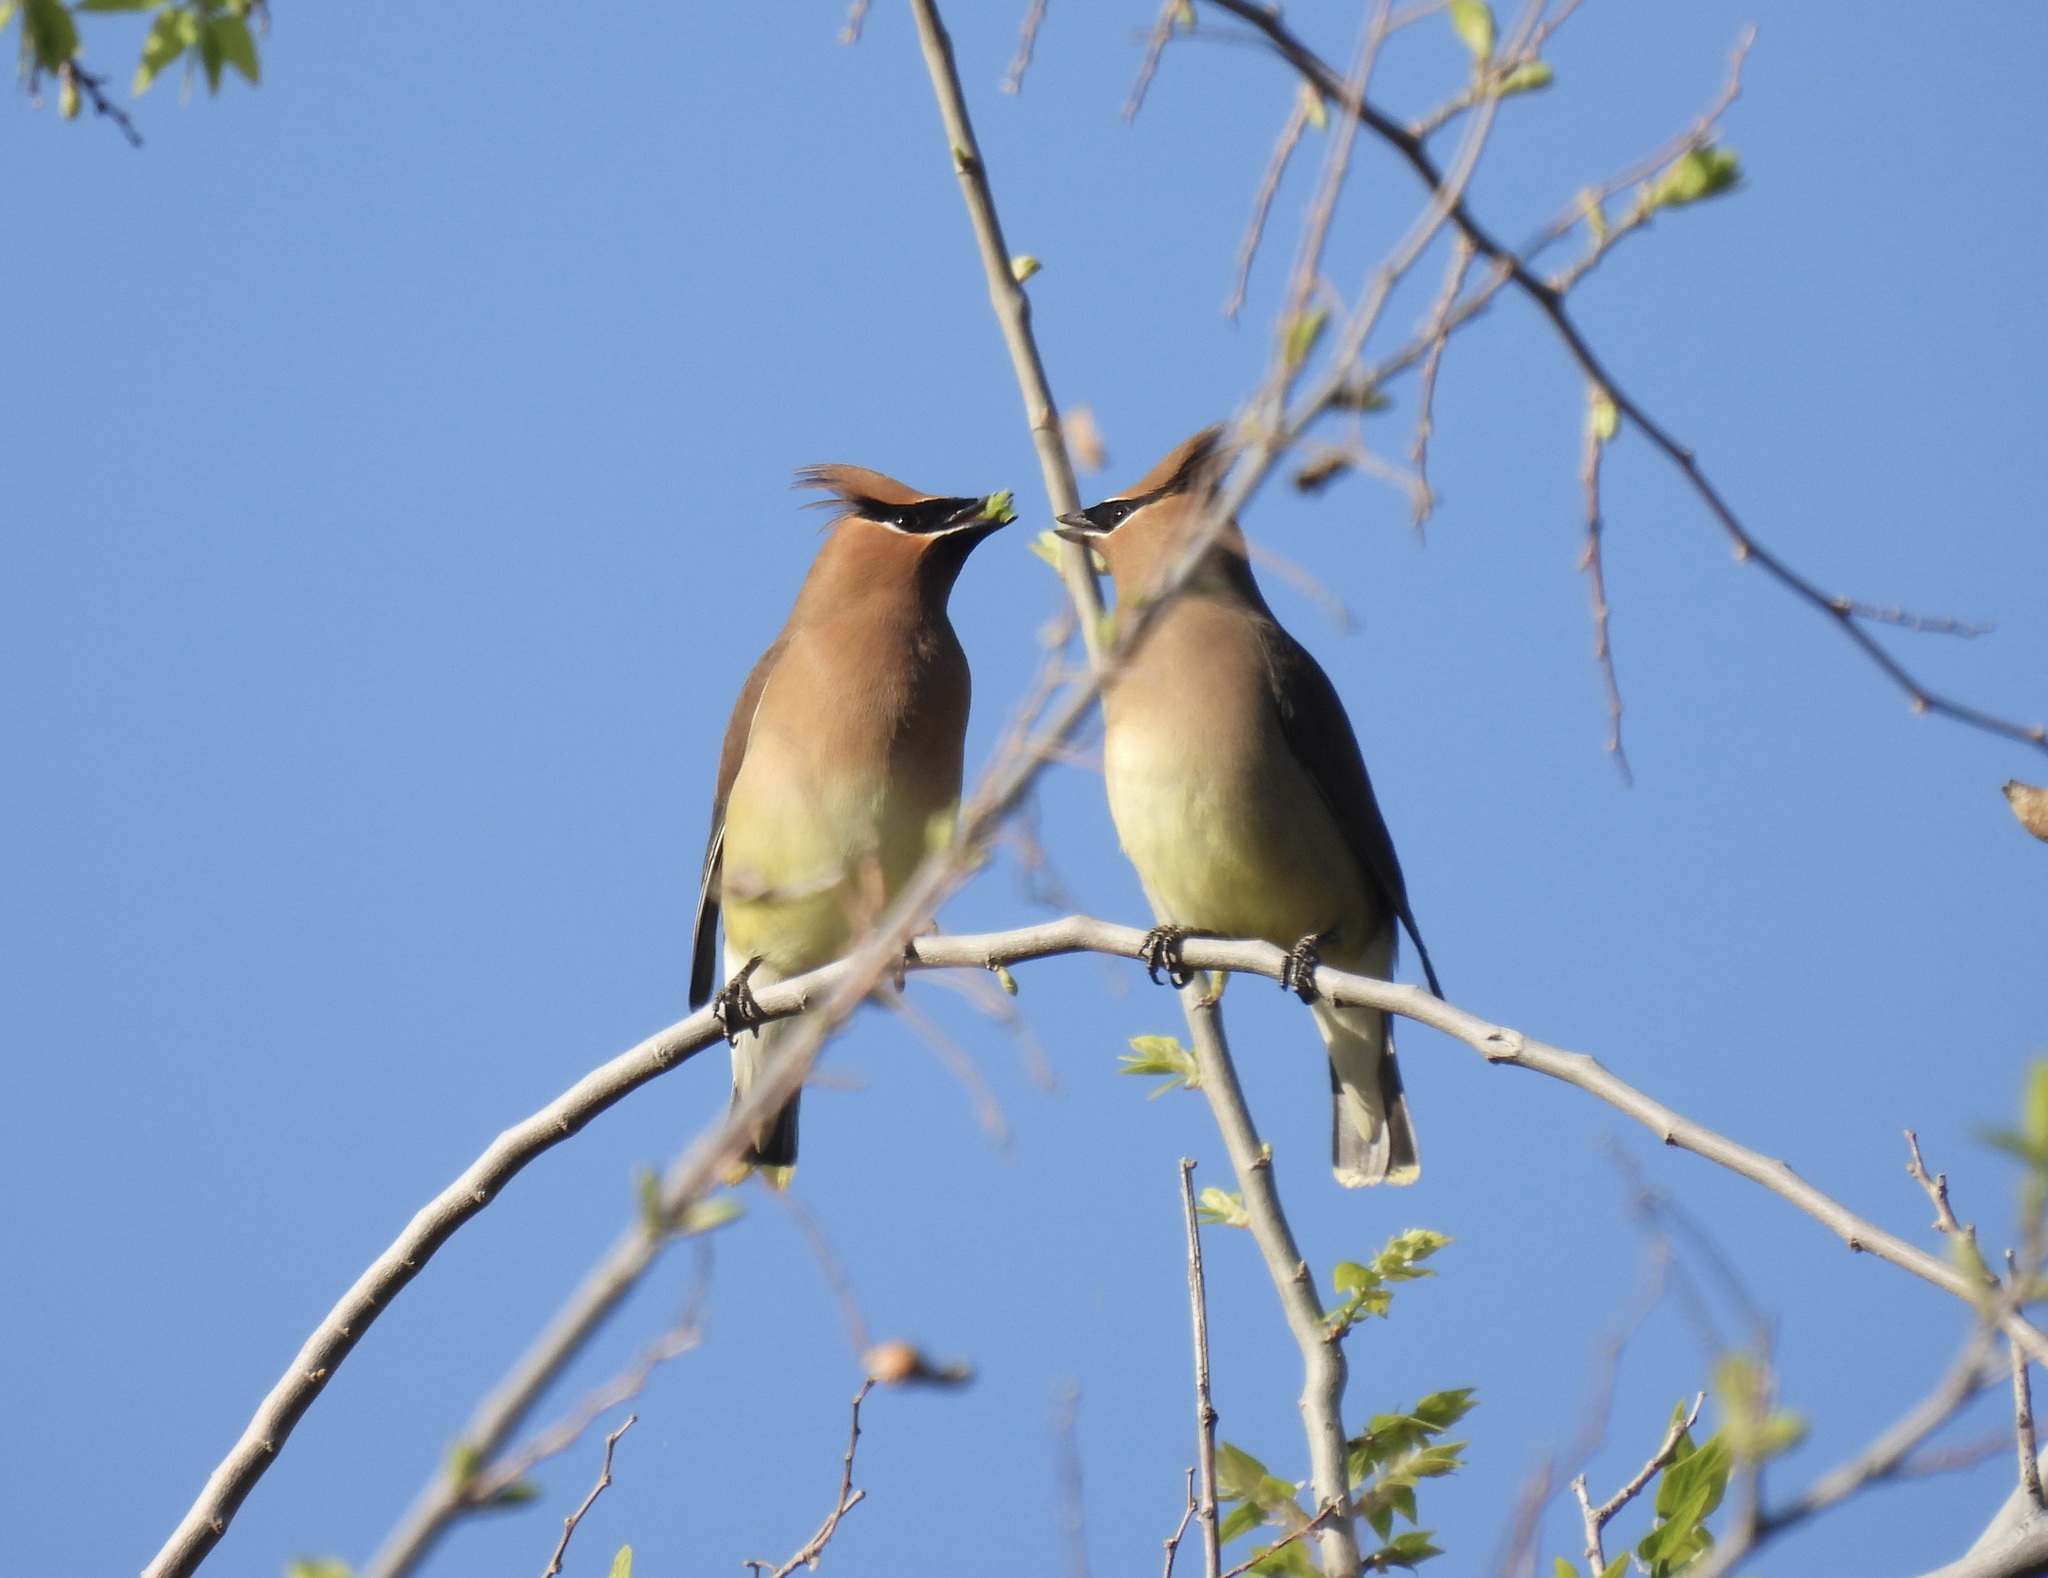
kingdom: Animalia
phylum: Chordata
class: Aves
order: Passeriformes
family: Bombycillidae
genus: Bombycilla
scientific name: Bombycilla cedrorum
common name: Cedar waxwing
